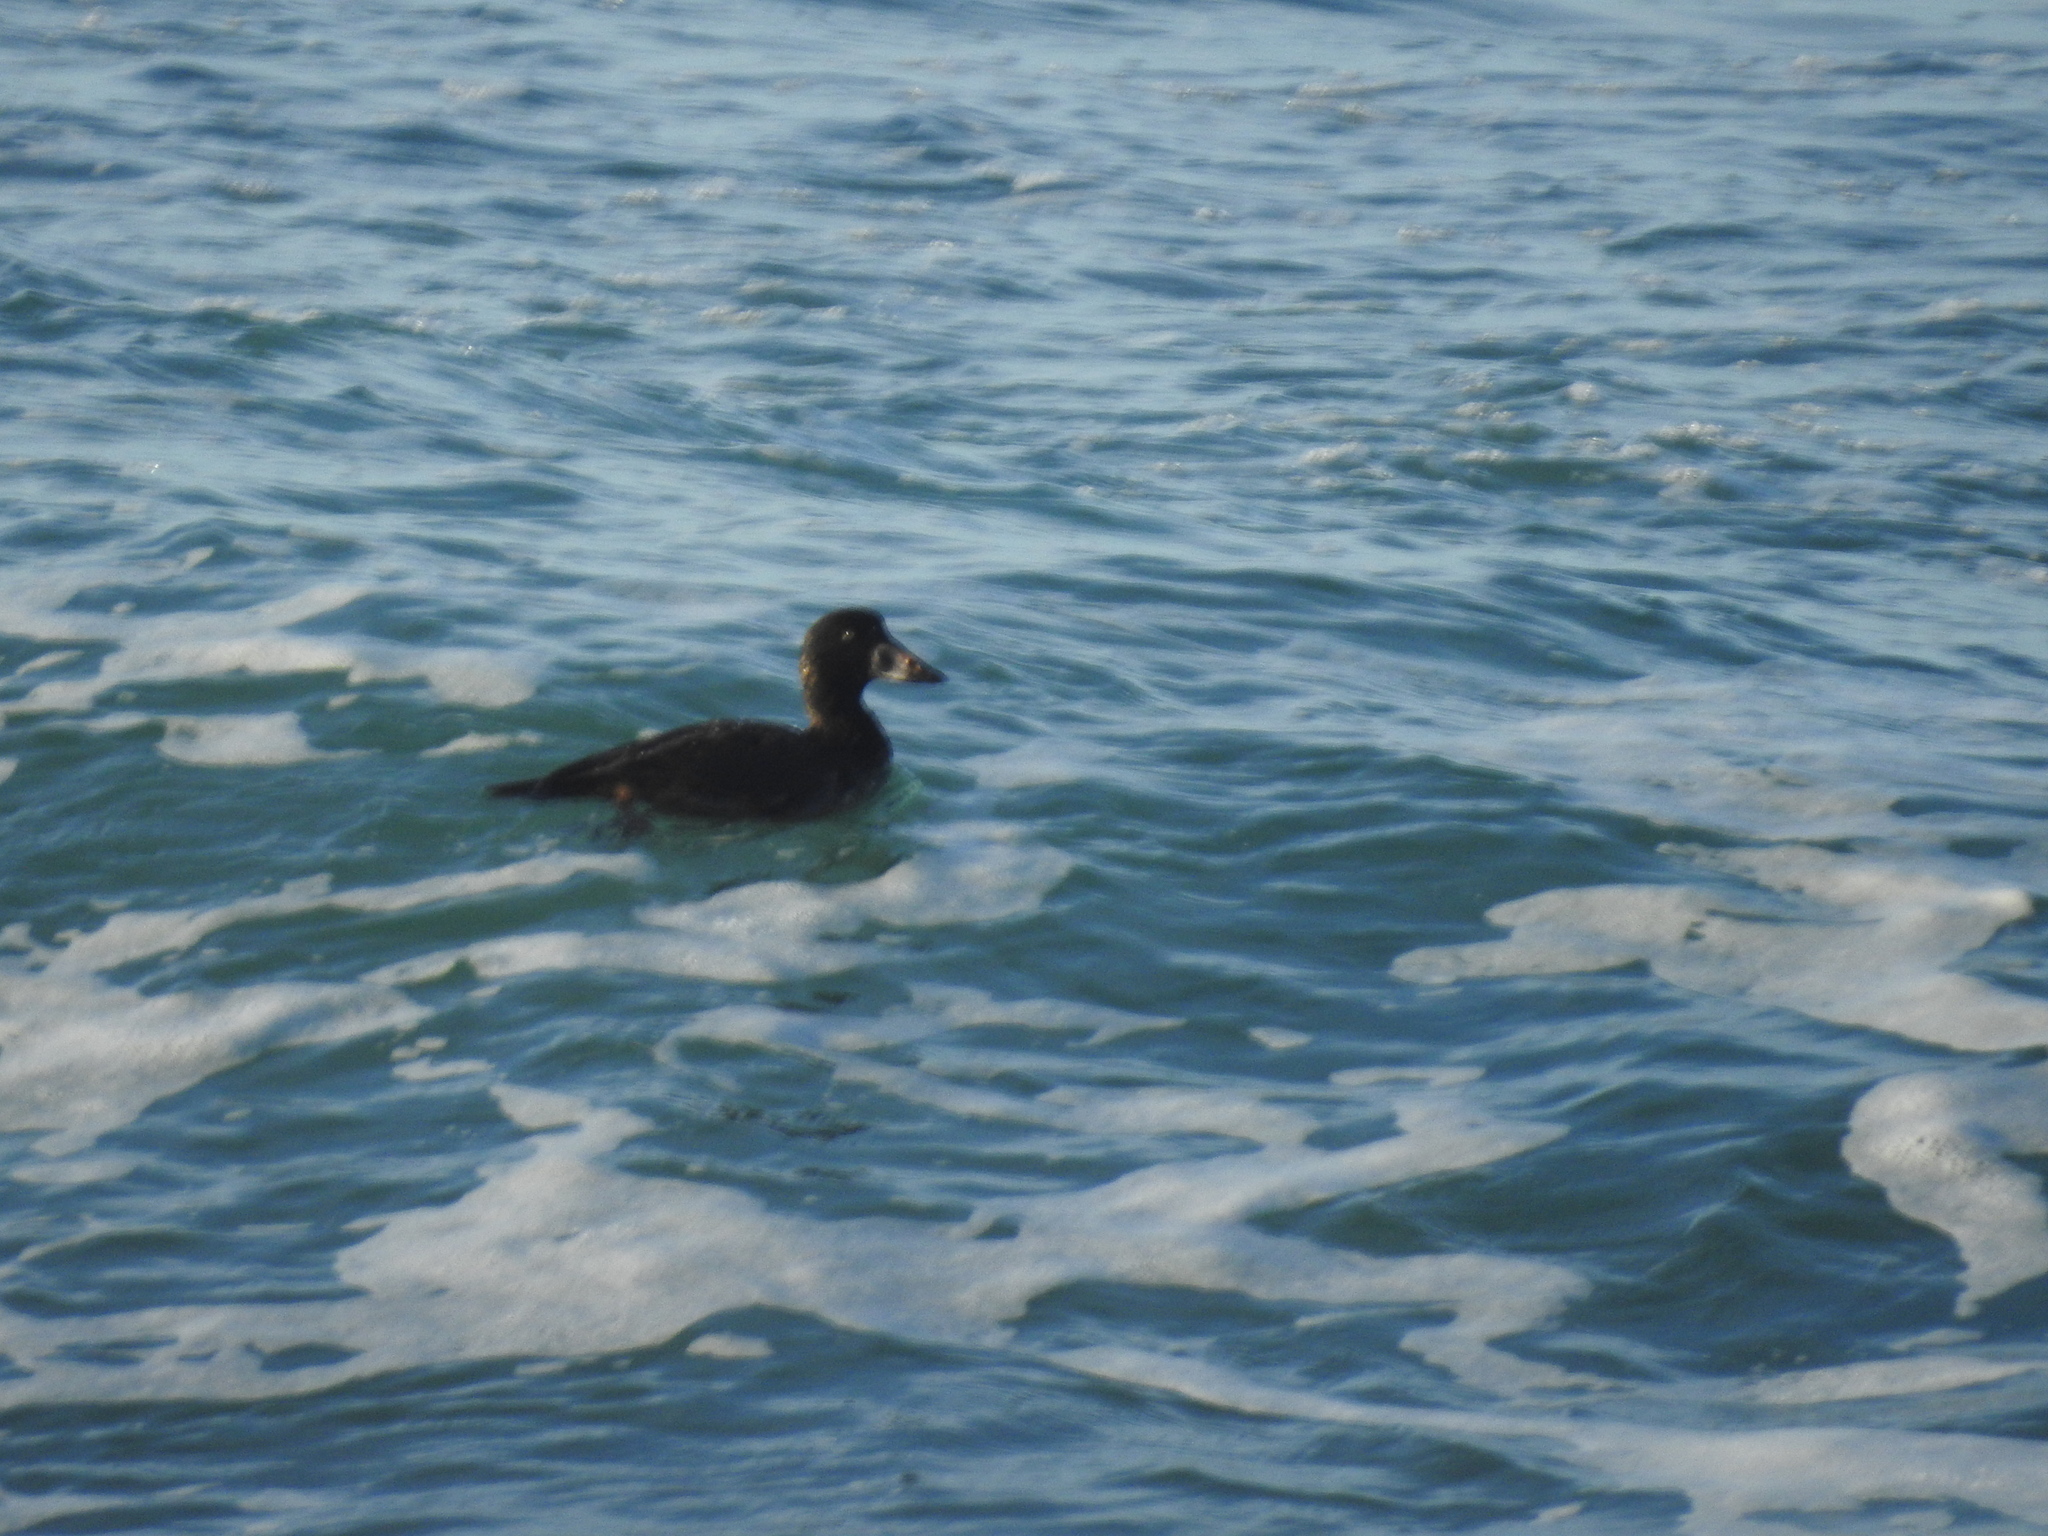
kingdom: Animalia
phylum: Chordata
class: Aves
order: Anseriformes
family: Anatidae
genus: Melanitta
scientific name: Melanitta perspicillata
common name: Surf scoter
